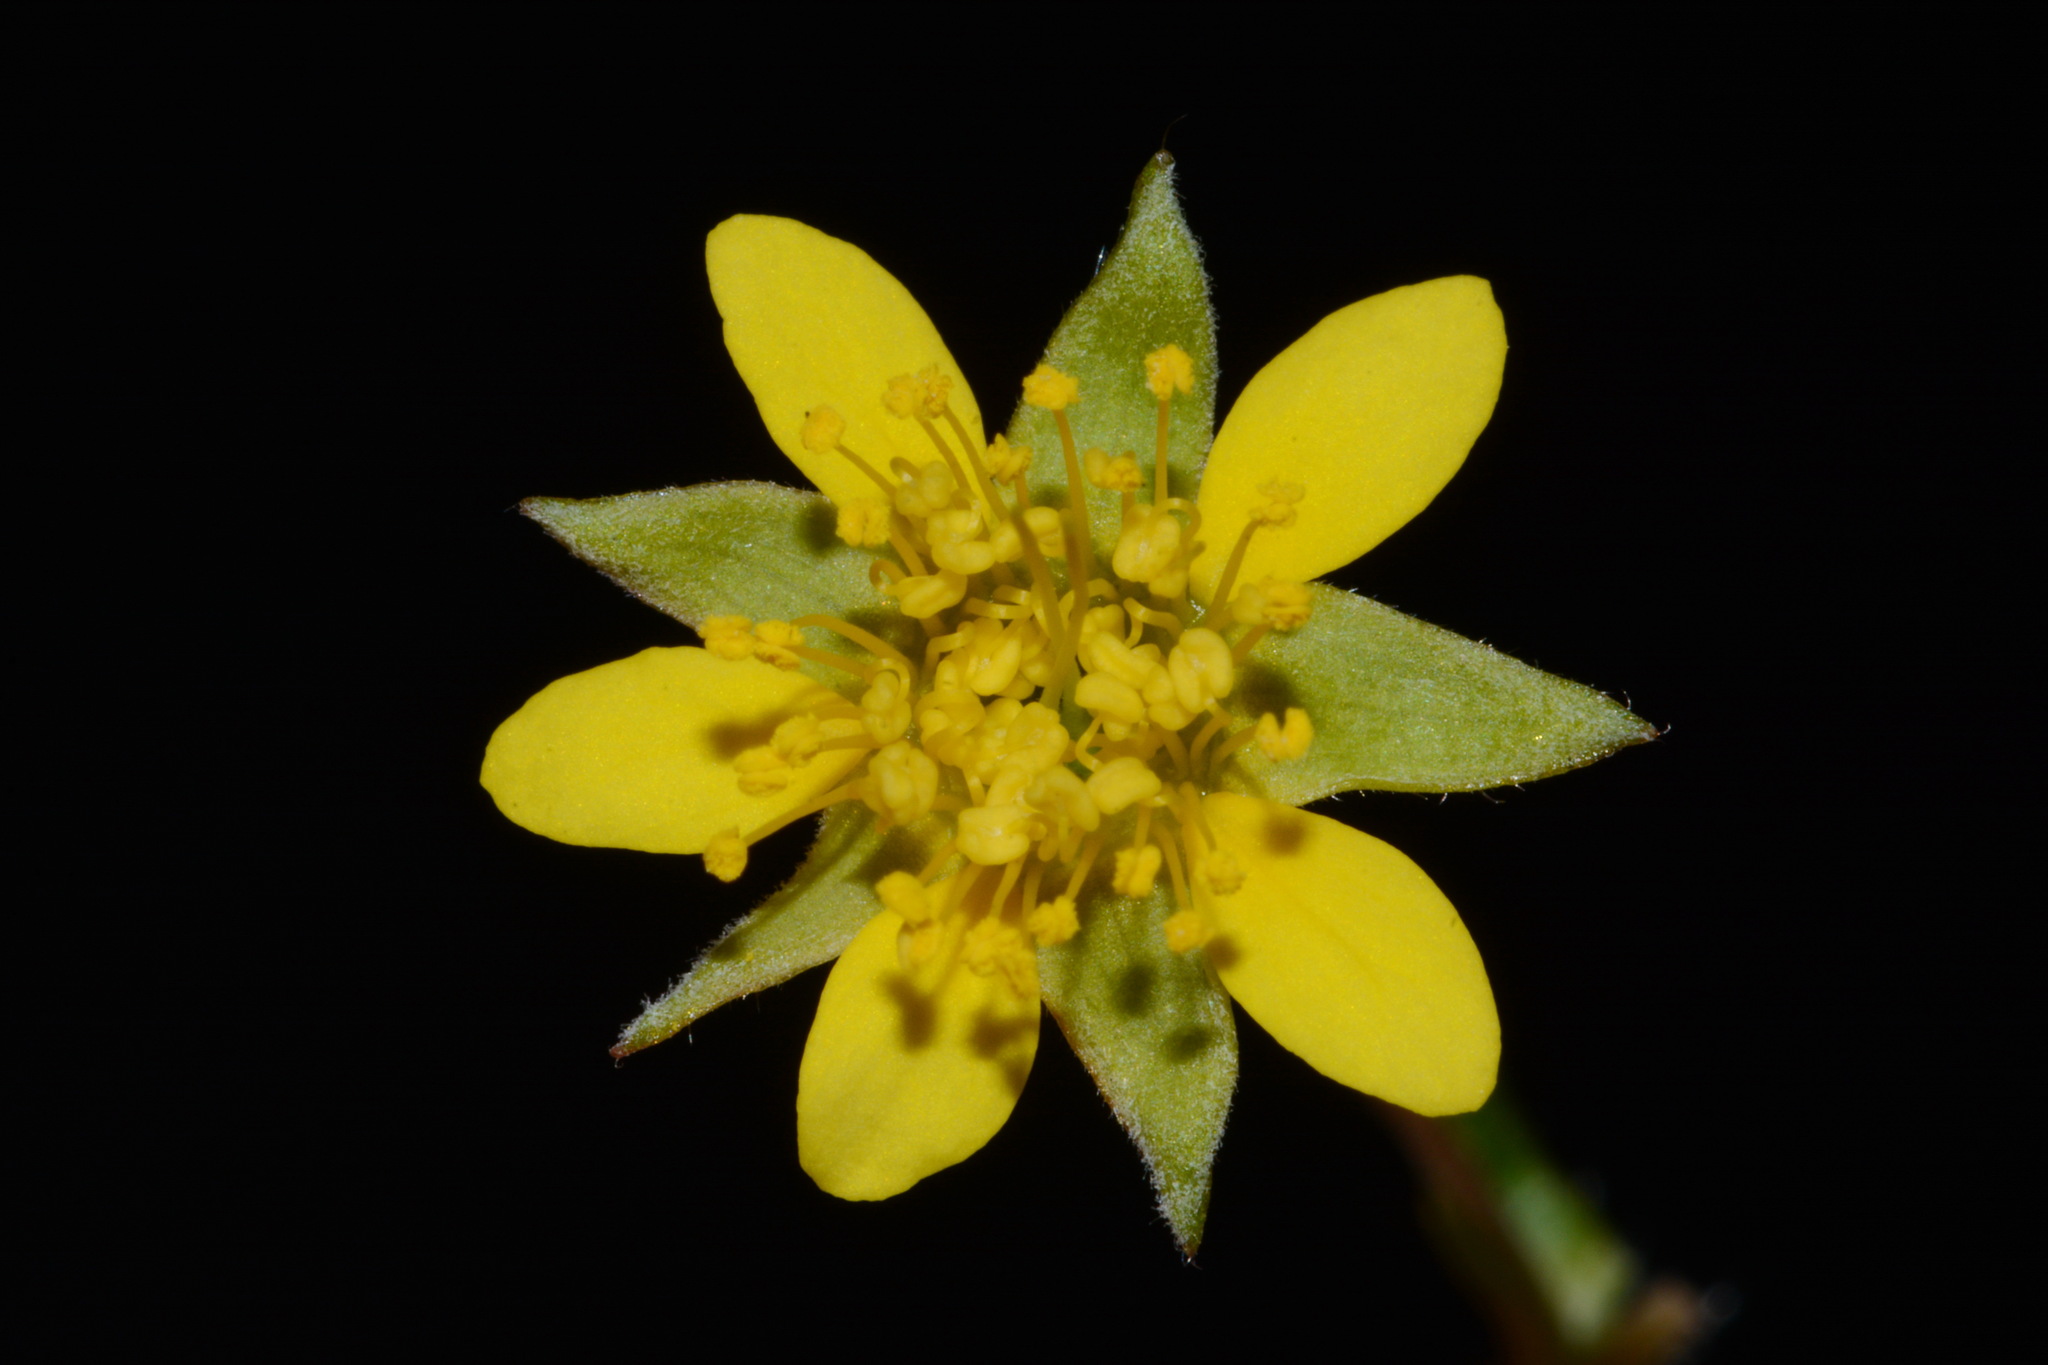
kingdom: Plantae
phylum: Tracheophyta
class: Magnoliopsida
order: Rosales
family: Rosaceae
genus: Geum
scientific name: Geum donianum
